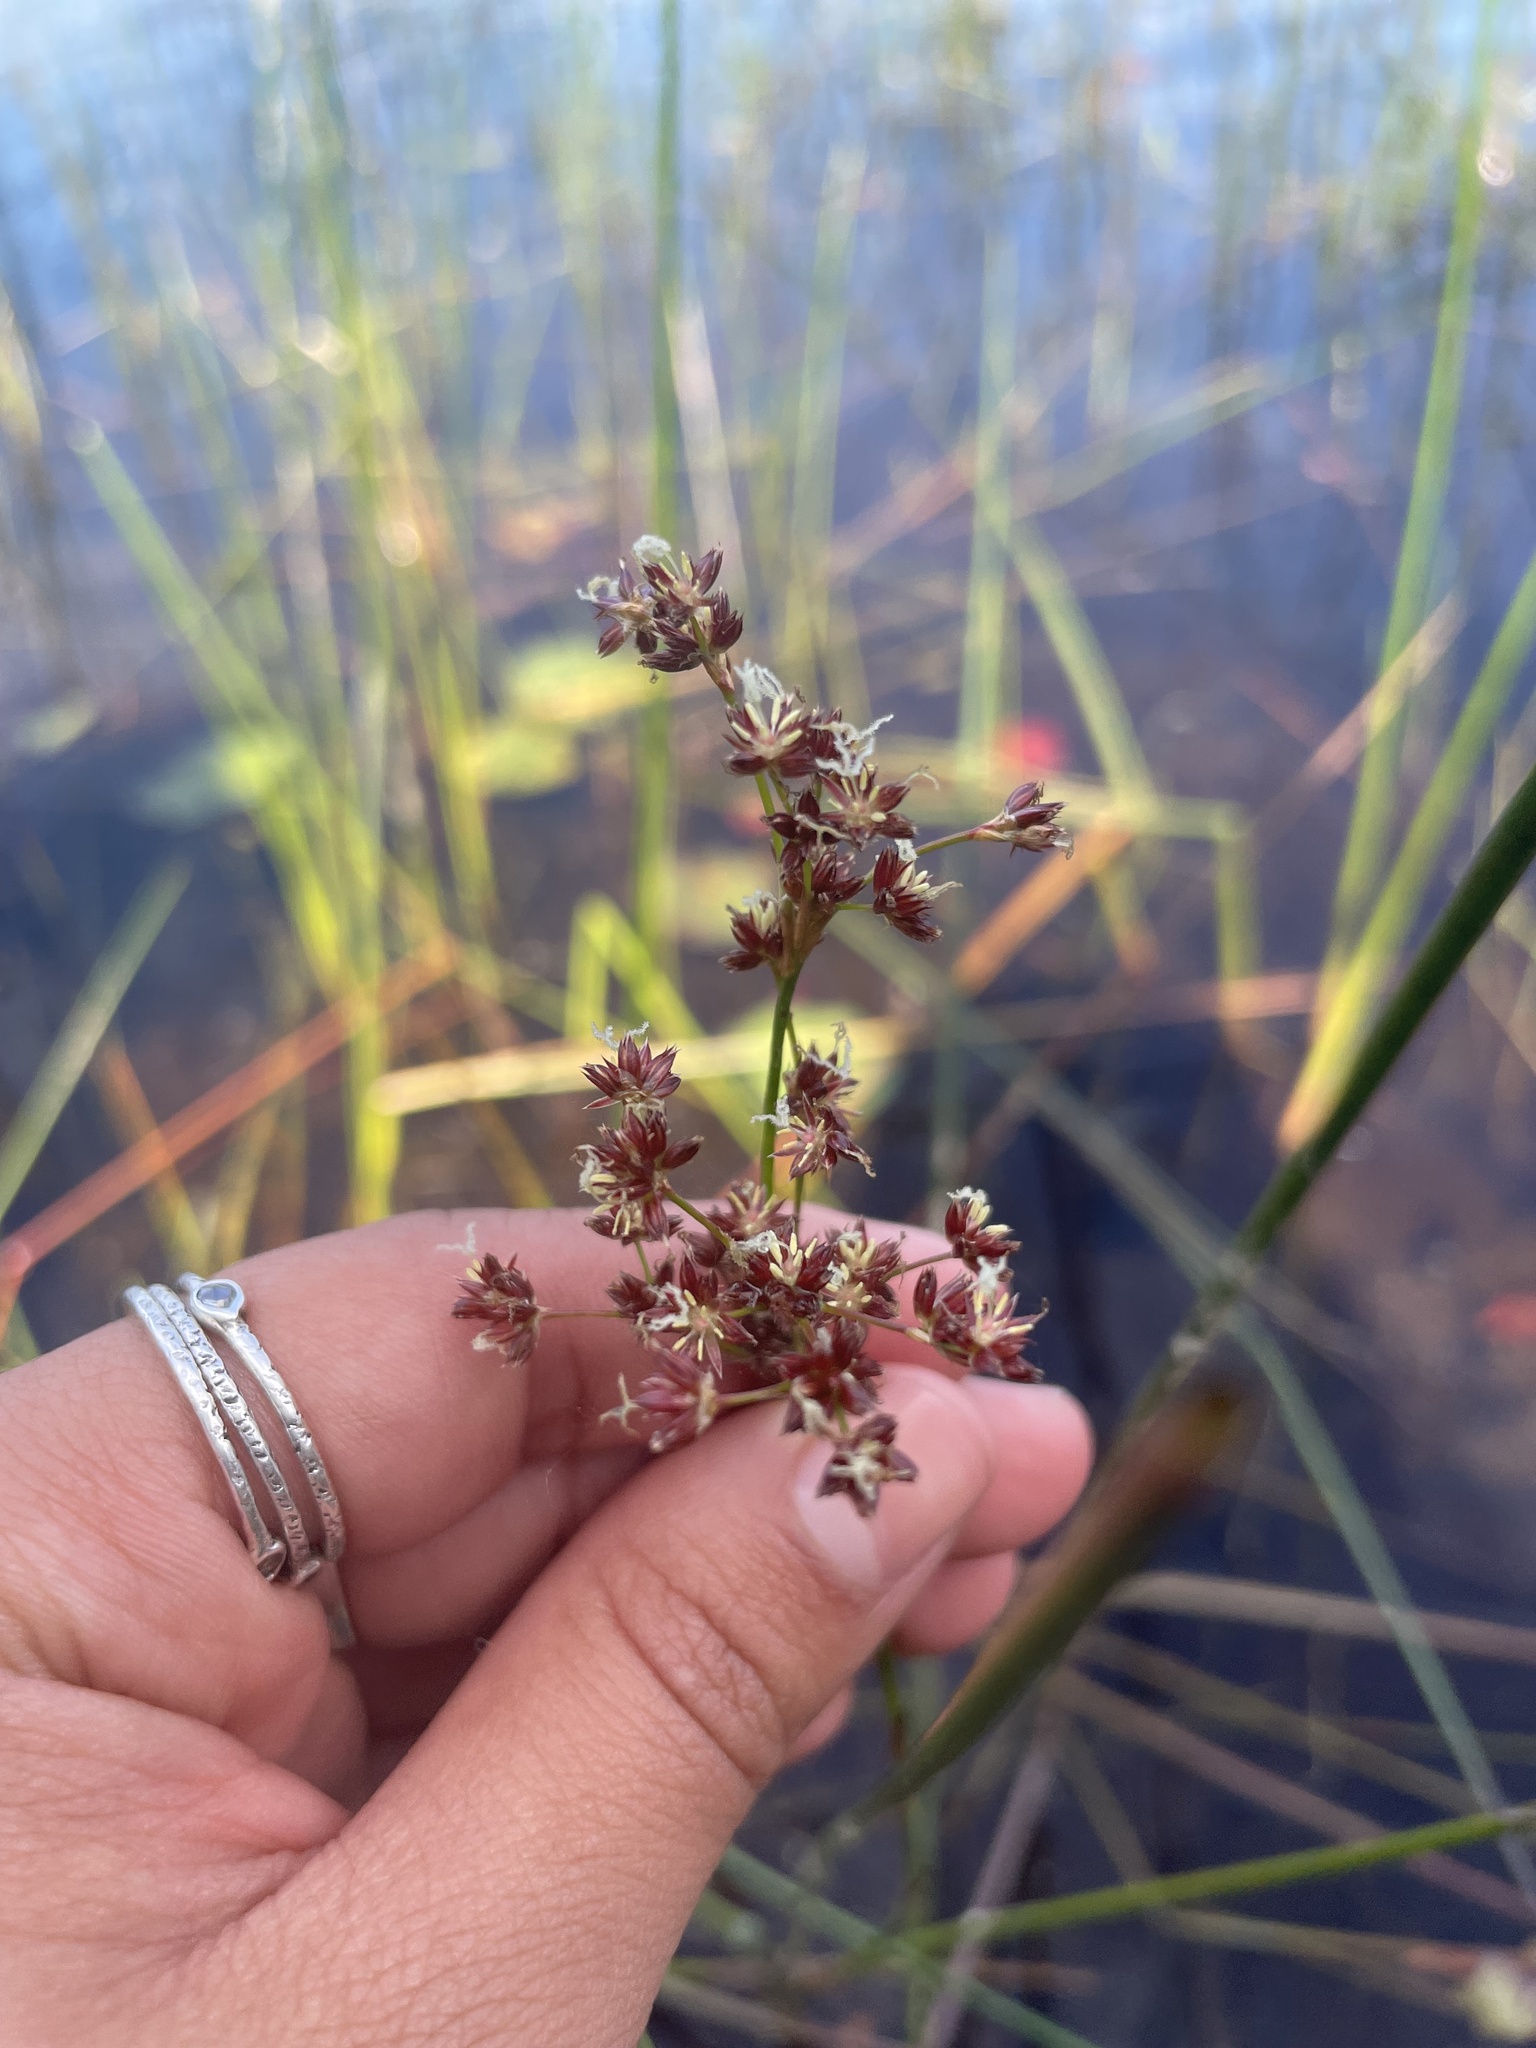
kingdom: Plantae
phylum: Tracheophyta
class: Liliopsida
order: Poales
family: Juncaceae
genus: Juncus
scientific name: Juncus militaris
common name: Bayonet rush
